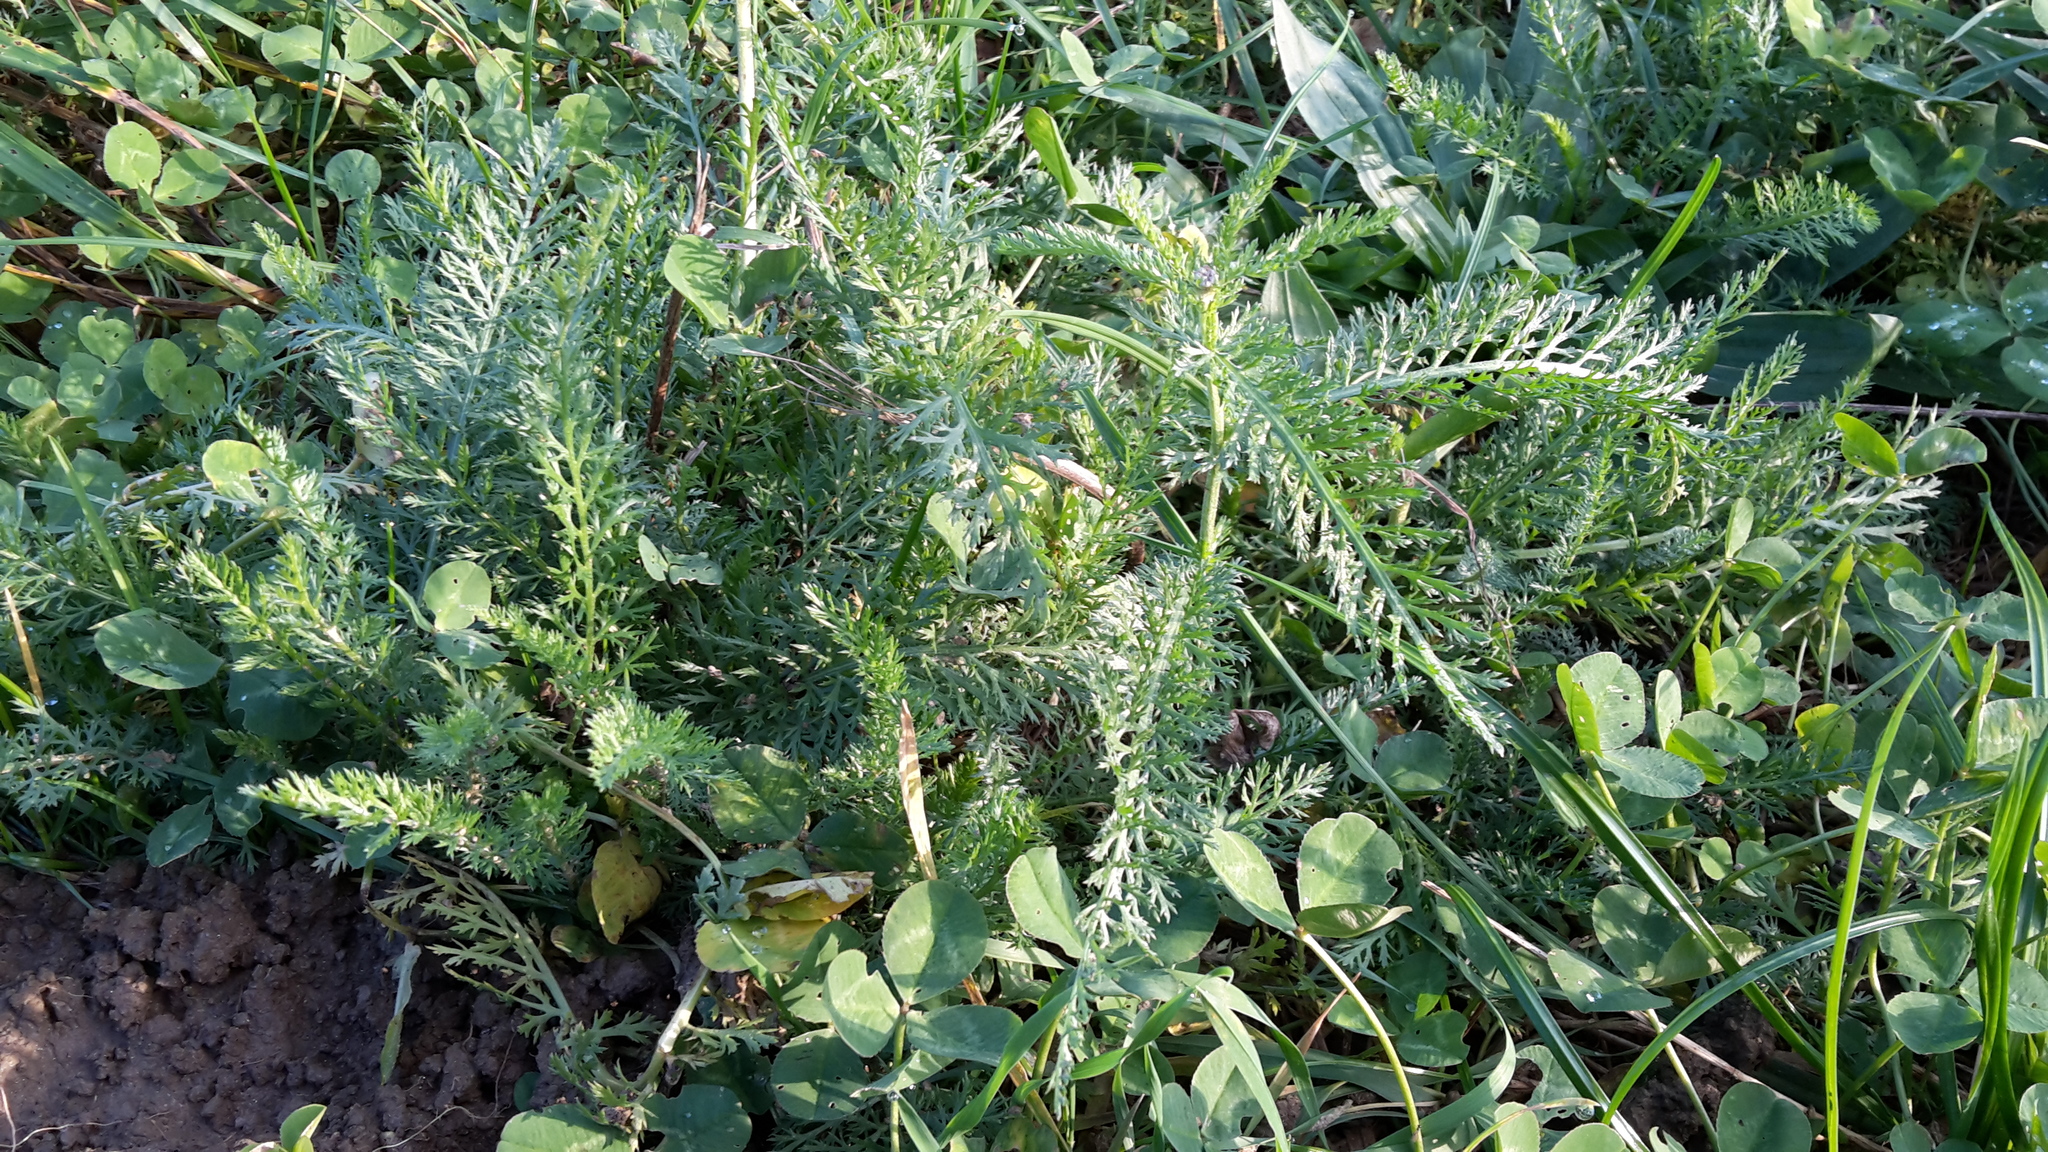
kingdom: Plantae
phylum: Tracheophyta
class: Magnoliopsida
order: Asterales
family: Asteraceae
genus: Achillea
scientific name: Achillea millefolium
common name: Yarrow
